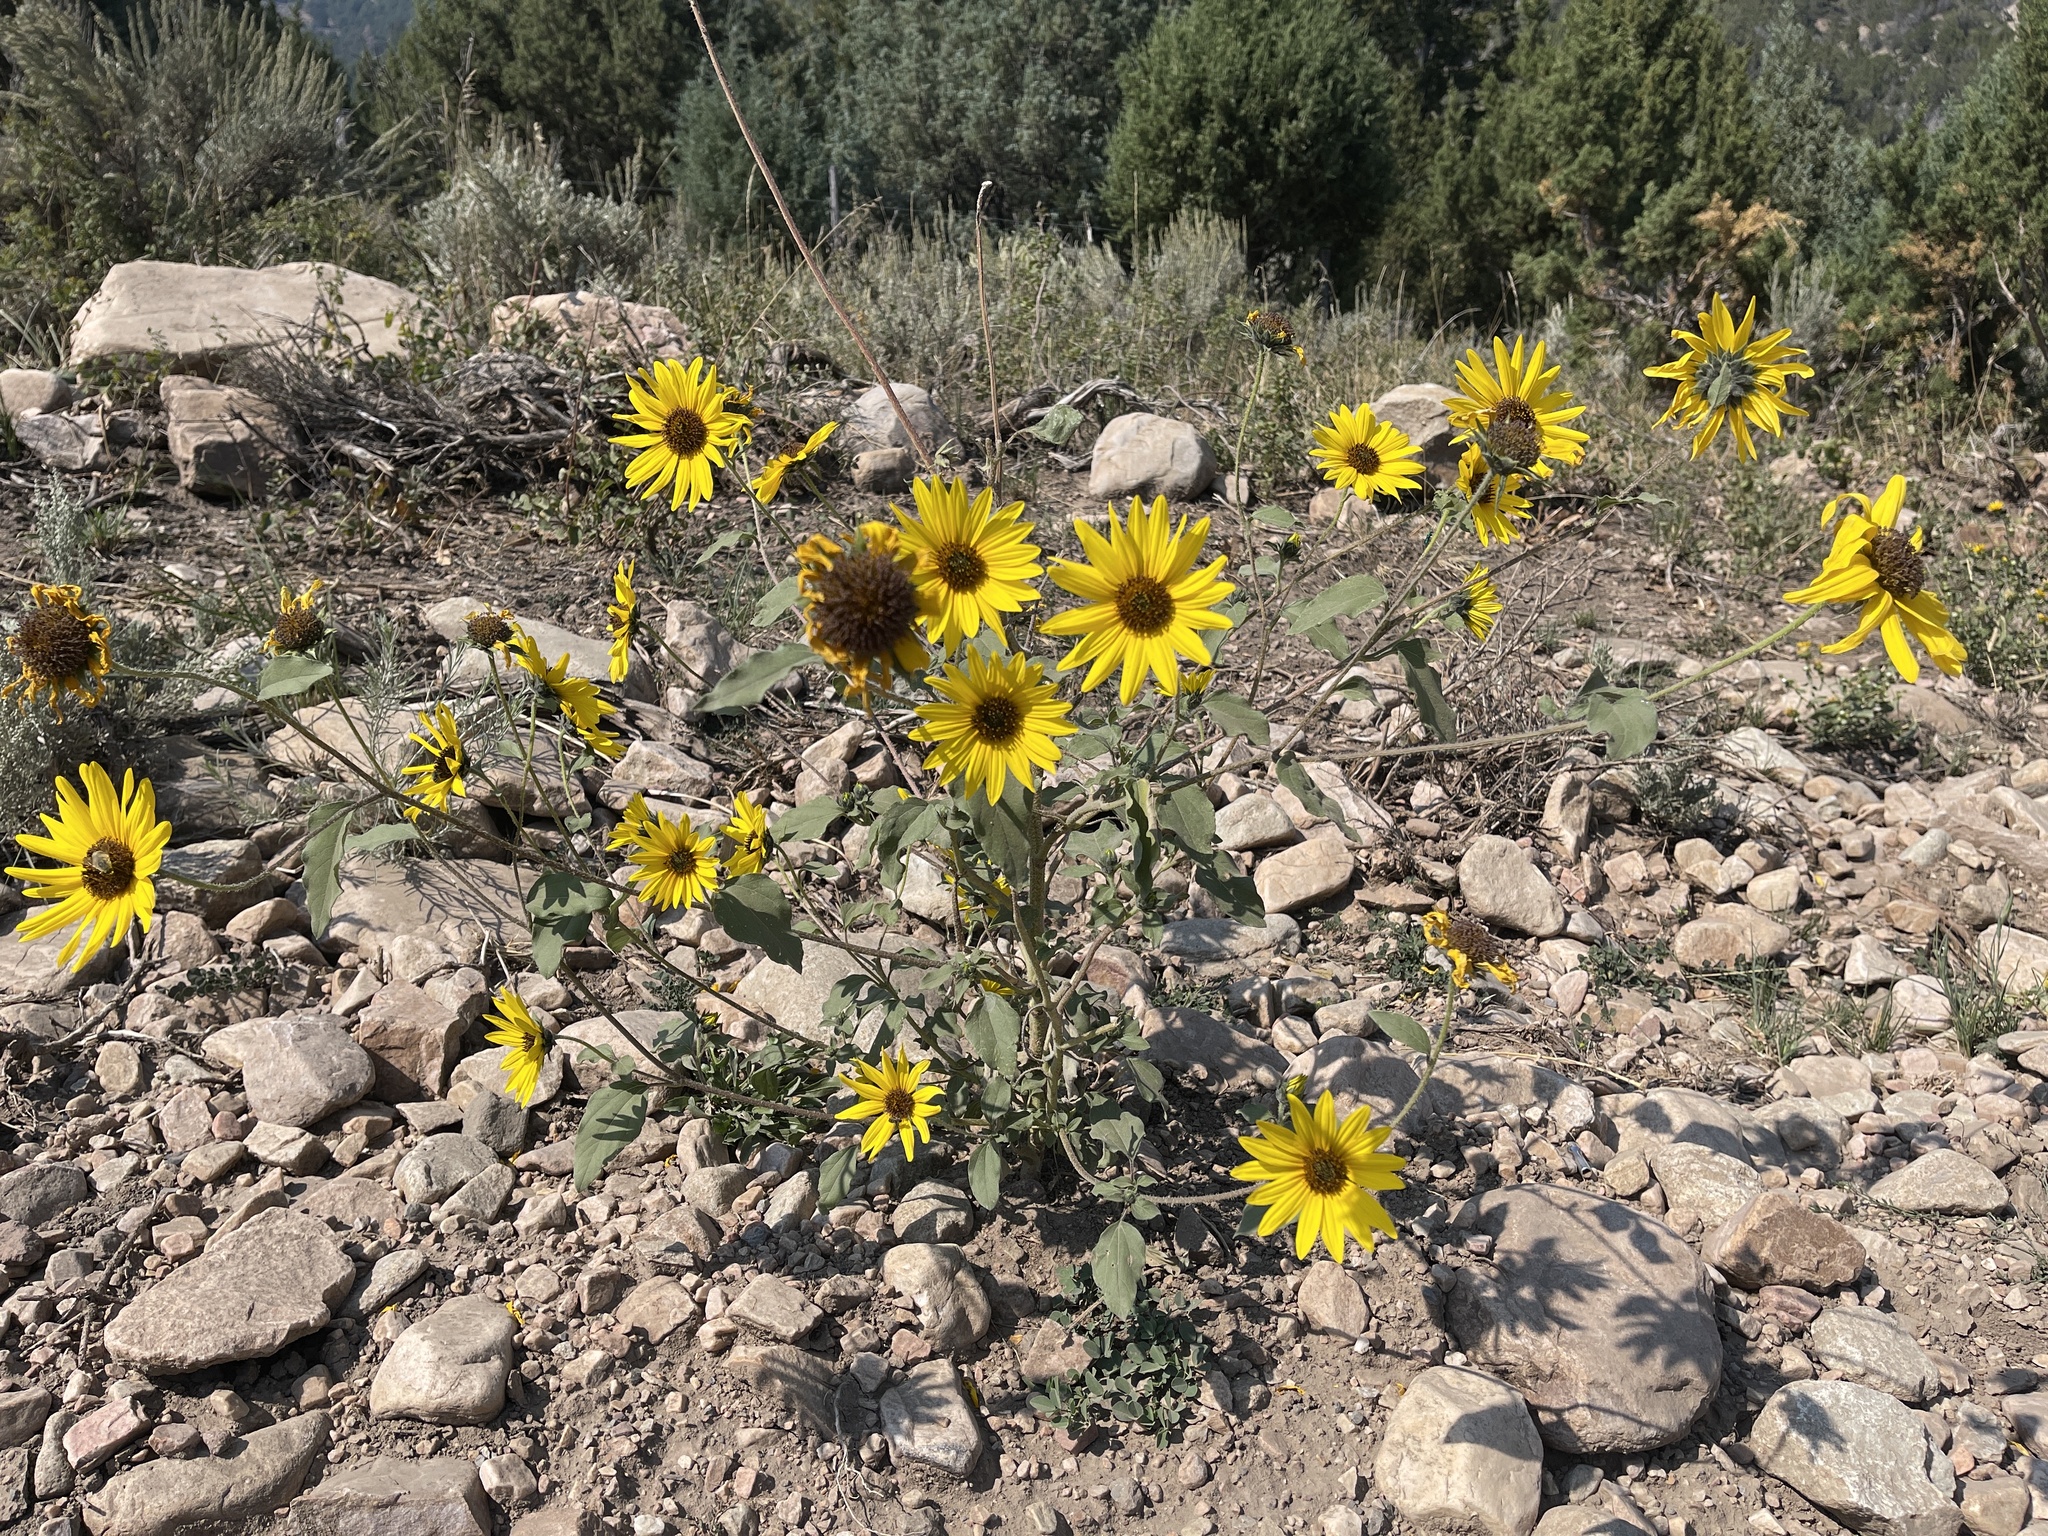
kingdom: Plantae
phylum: Tracheophyta
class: Magnoliopsida
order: Asterales
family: Asteraceae
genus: Helianthus
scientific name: Helianthus annuus
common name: Sunflower
